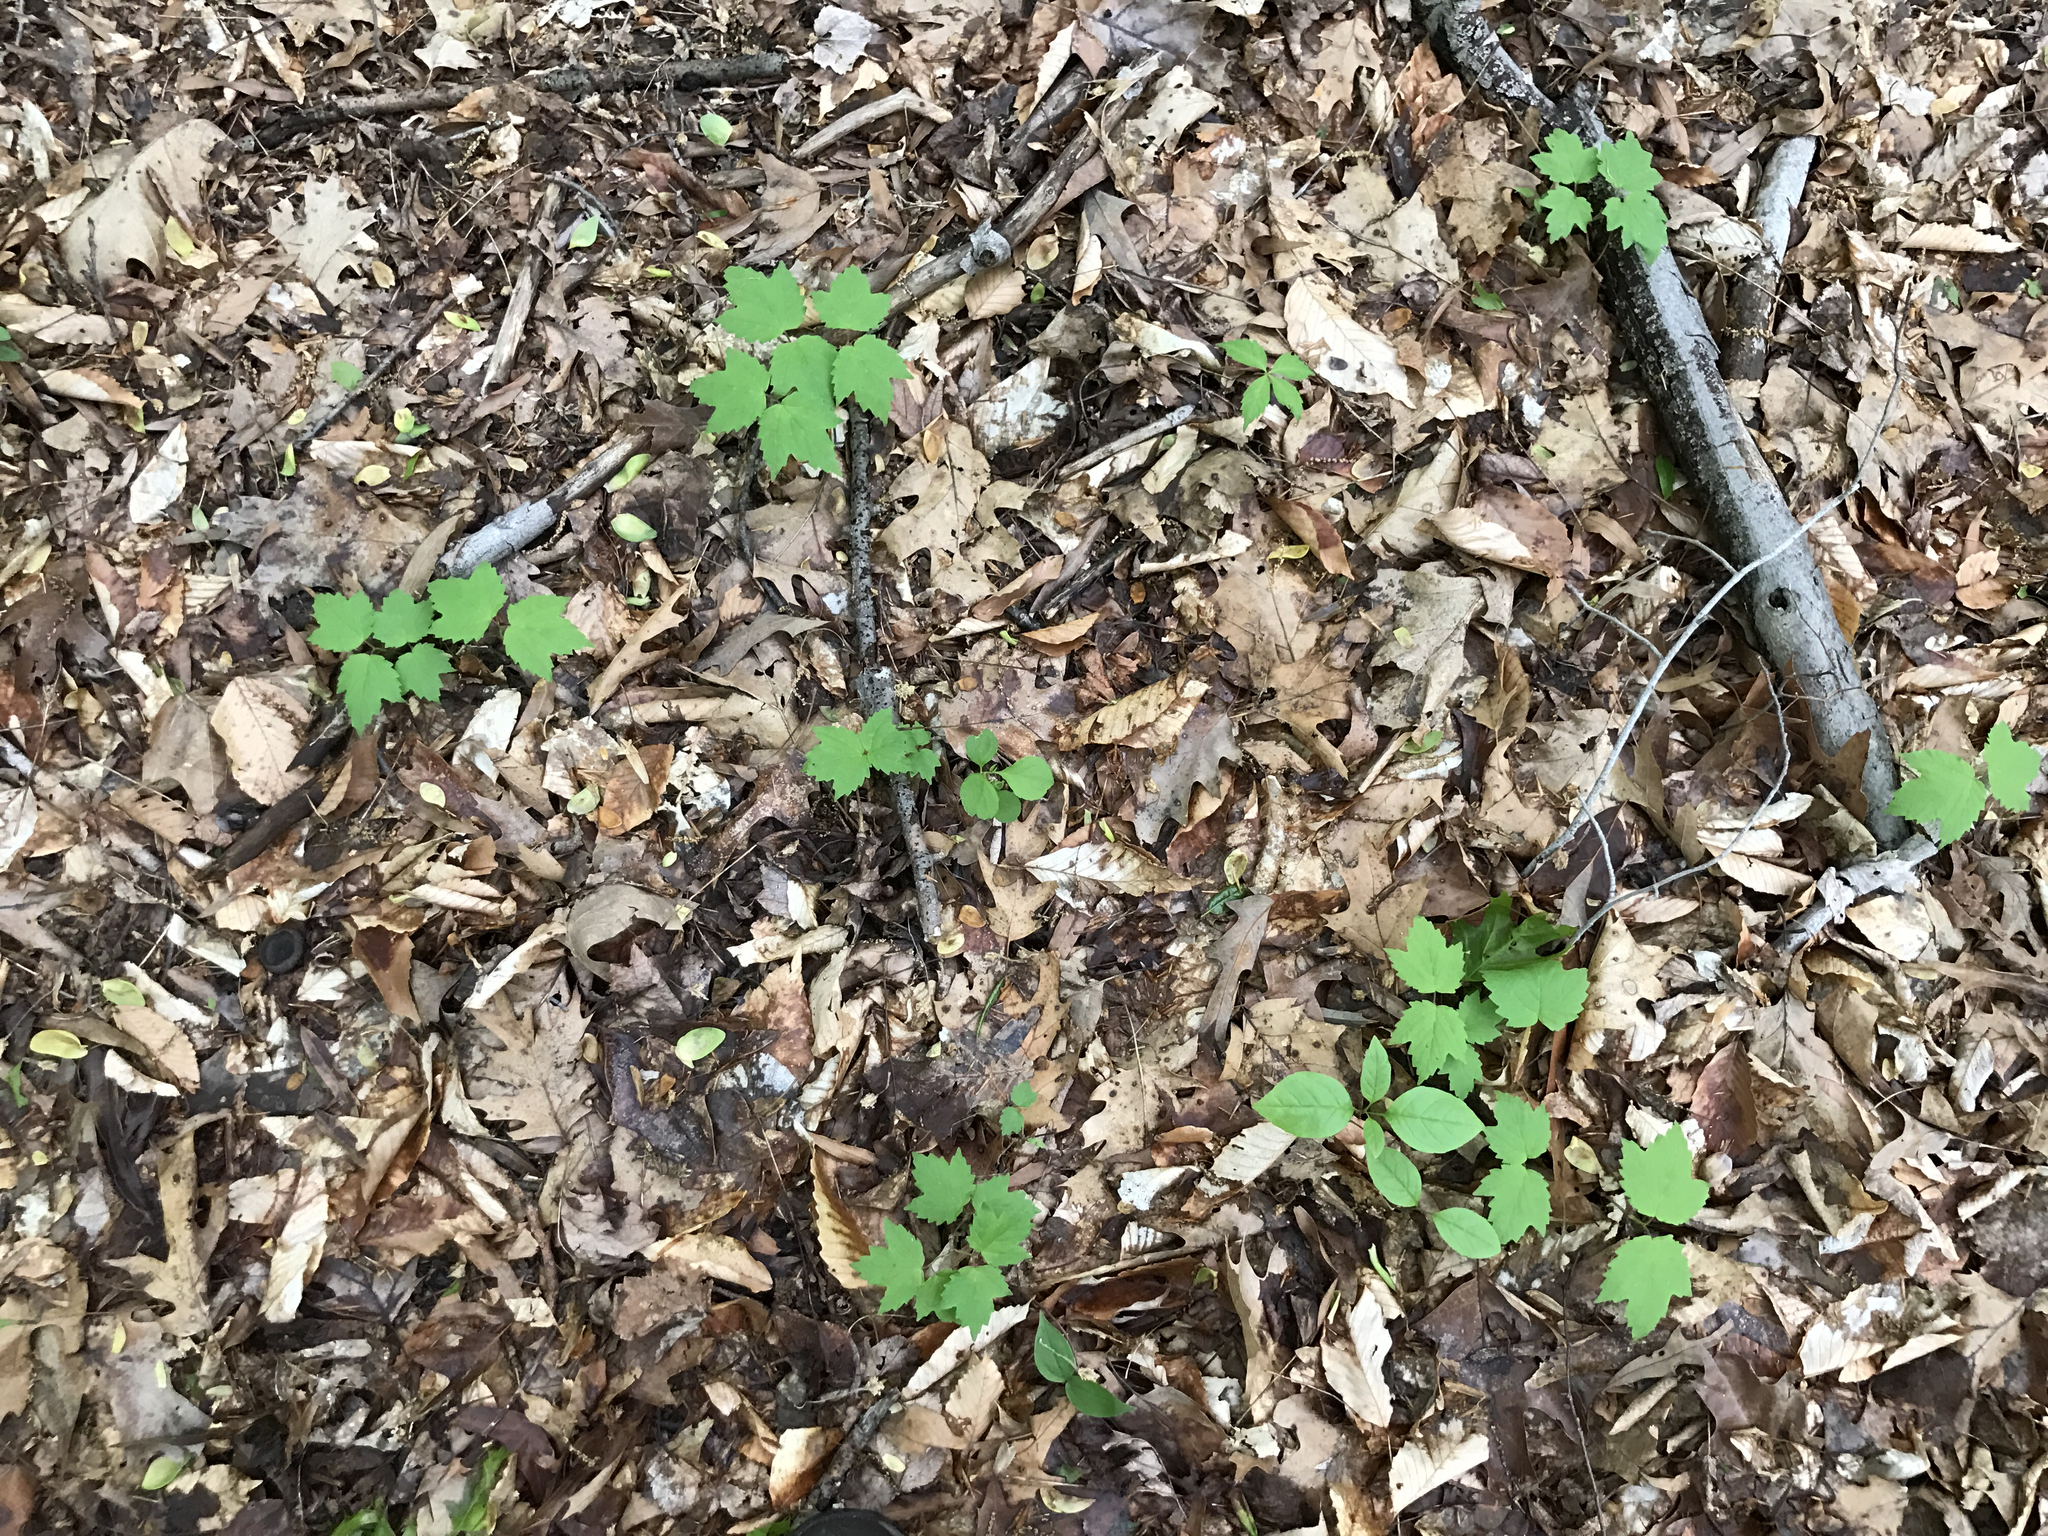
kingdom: Plantae
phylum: Tracheophyta
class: Magnoliopsida
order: Dipsacales
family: Viburnaceae
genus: Viburnum
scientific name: Viburnum acerifolium
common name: Dockmackie
